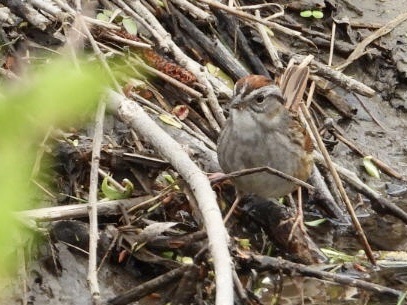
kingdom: Animalia
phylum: Chordata
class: Aves
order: Passeriformes
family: Passerellidae
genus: Melospiza
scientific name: Melospiza georgiana
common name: Swamp sparrow
